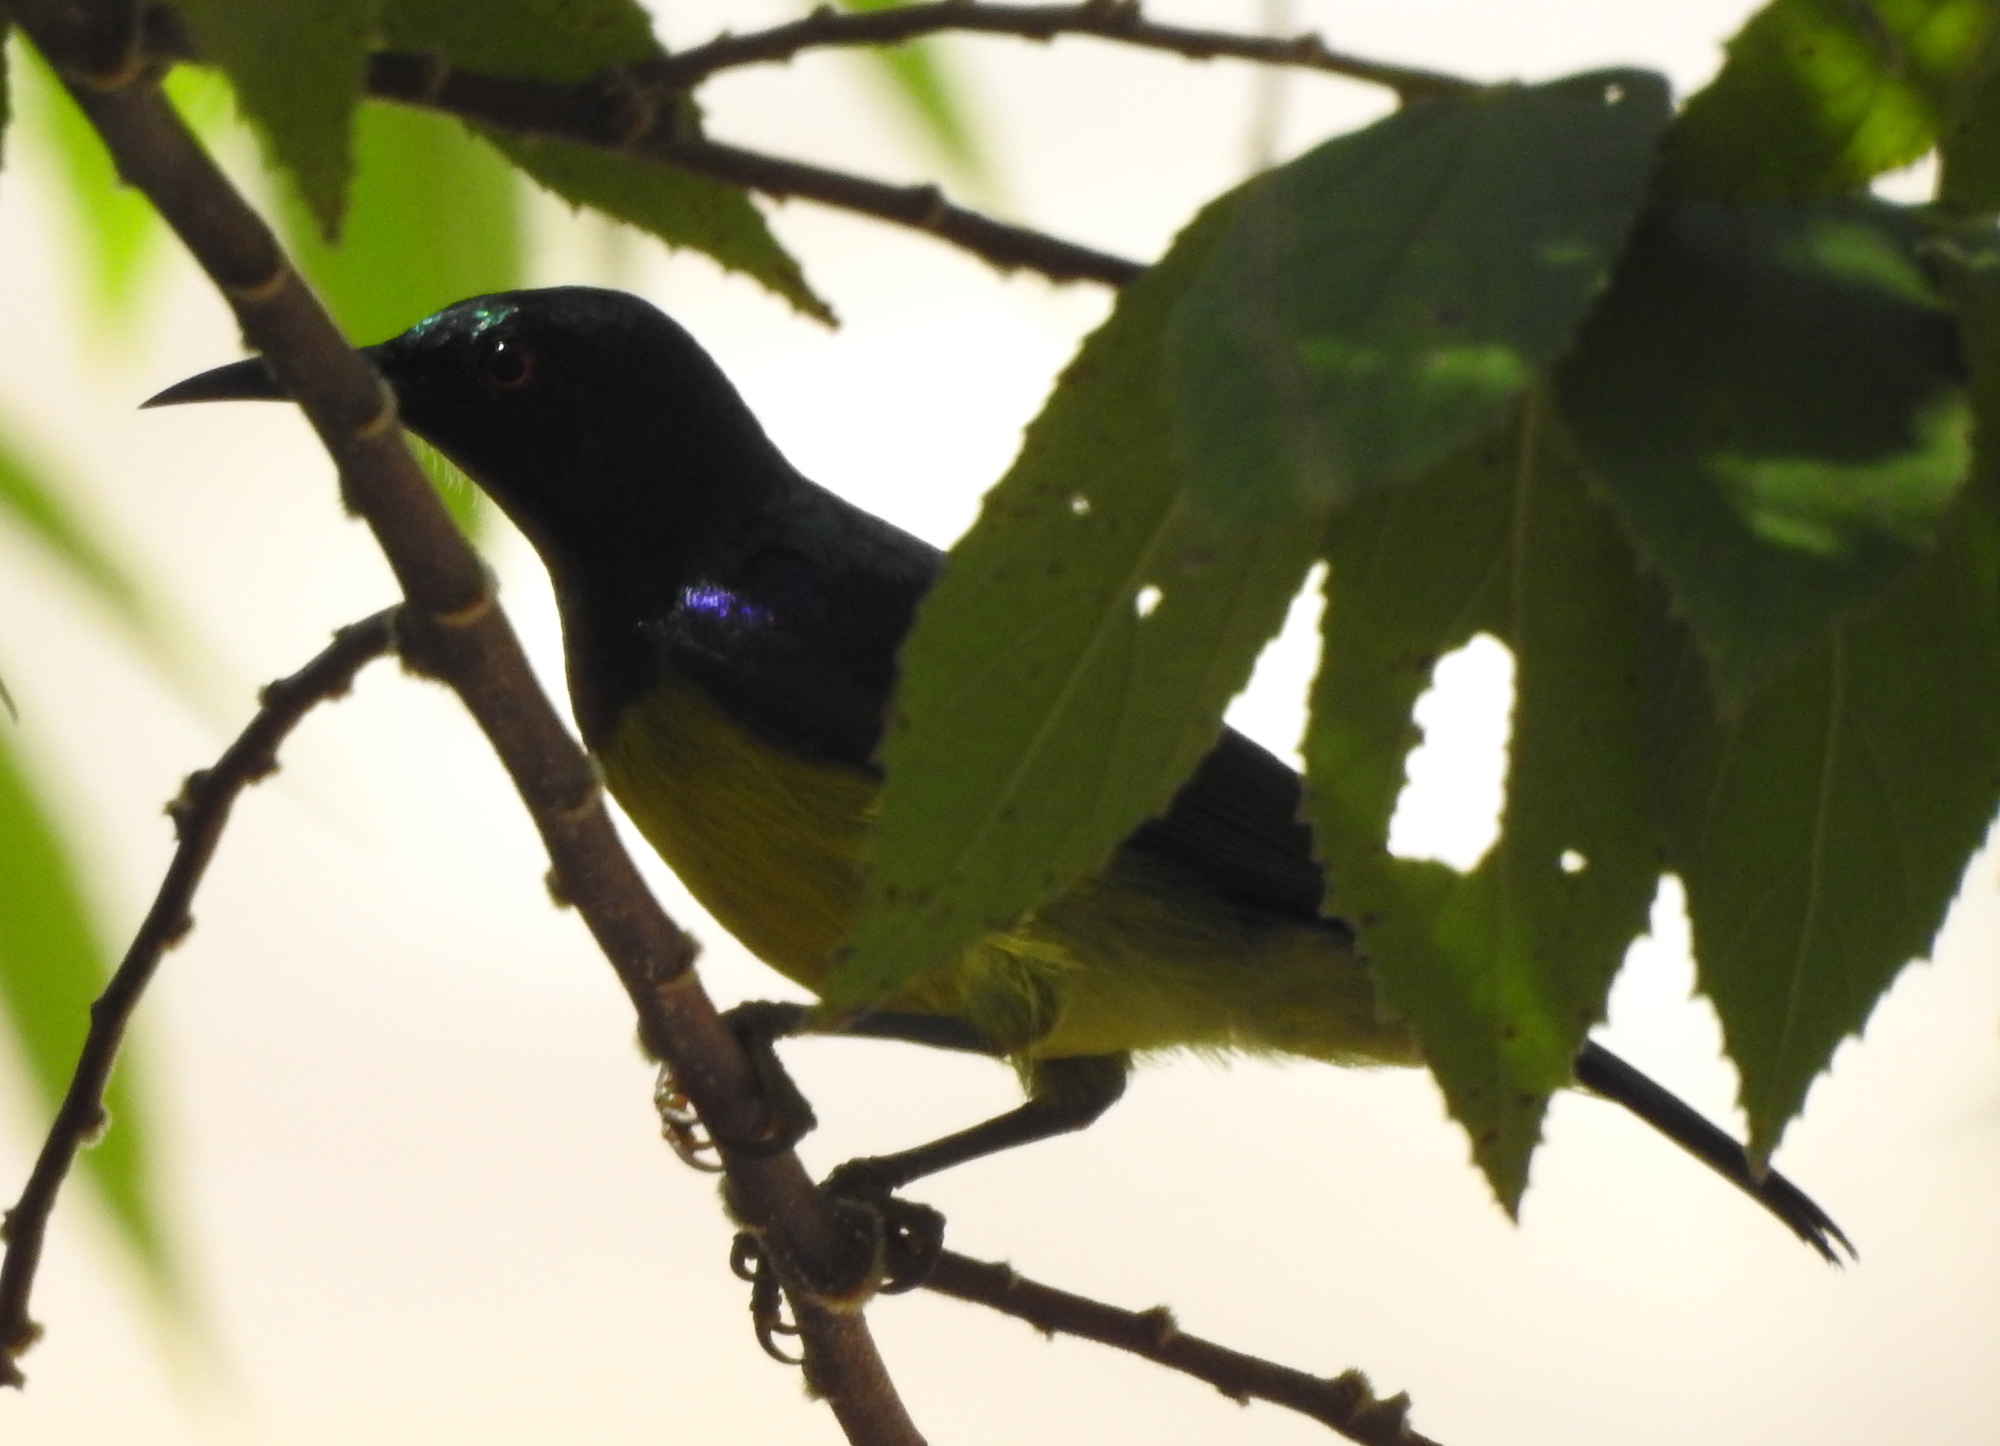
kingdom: Animalia
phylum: Chordata
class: Aves
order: Passeriformes
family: Nectariniidae
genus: Anthreptes
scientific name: Anthreptes malacensis
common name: Brown-throated sunbird
